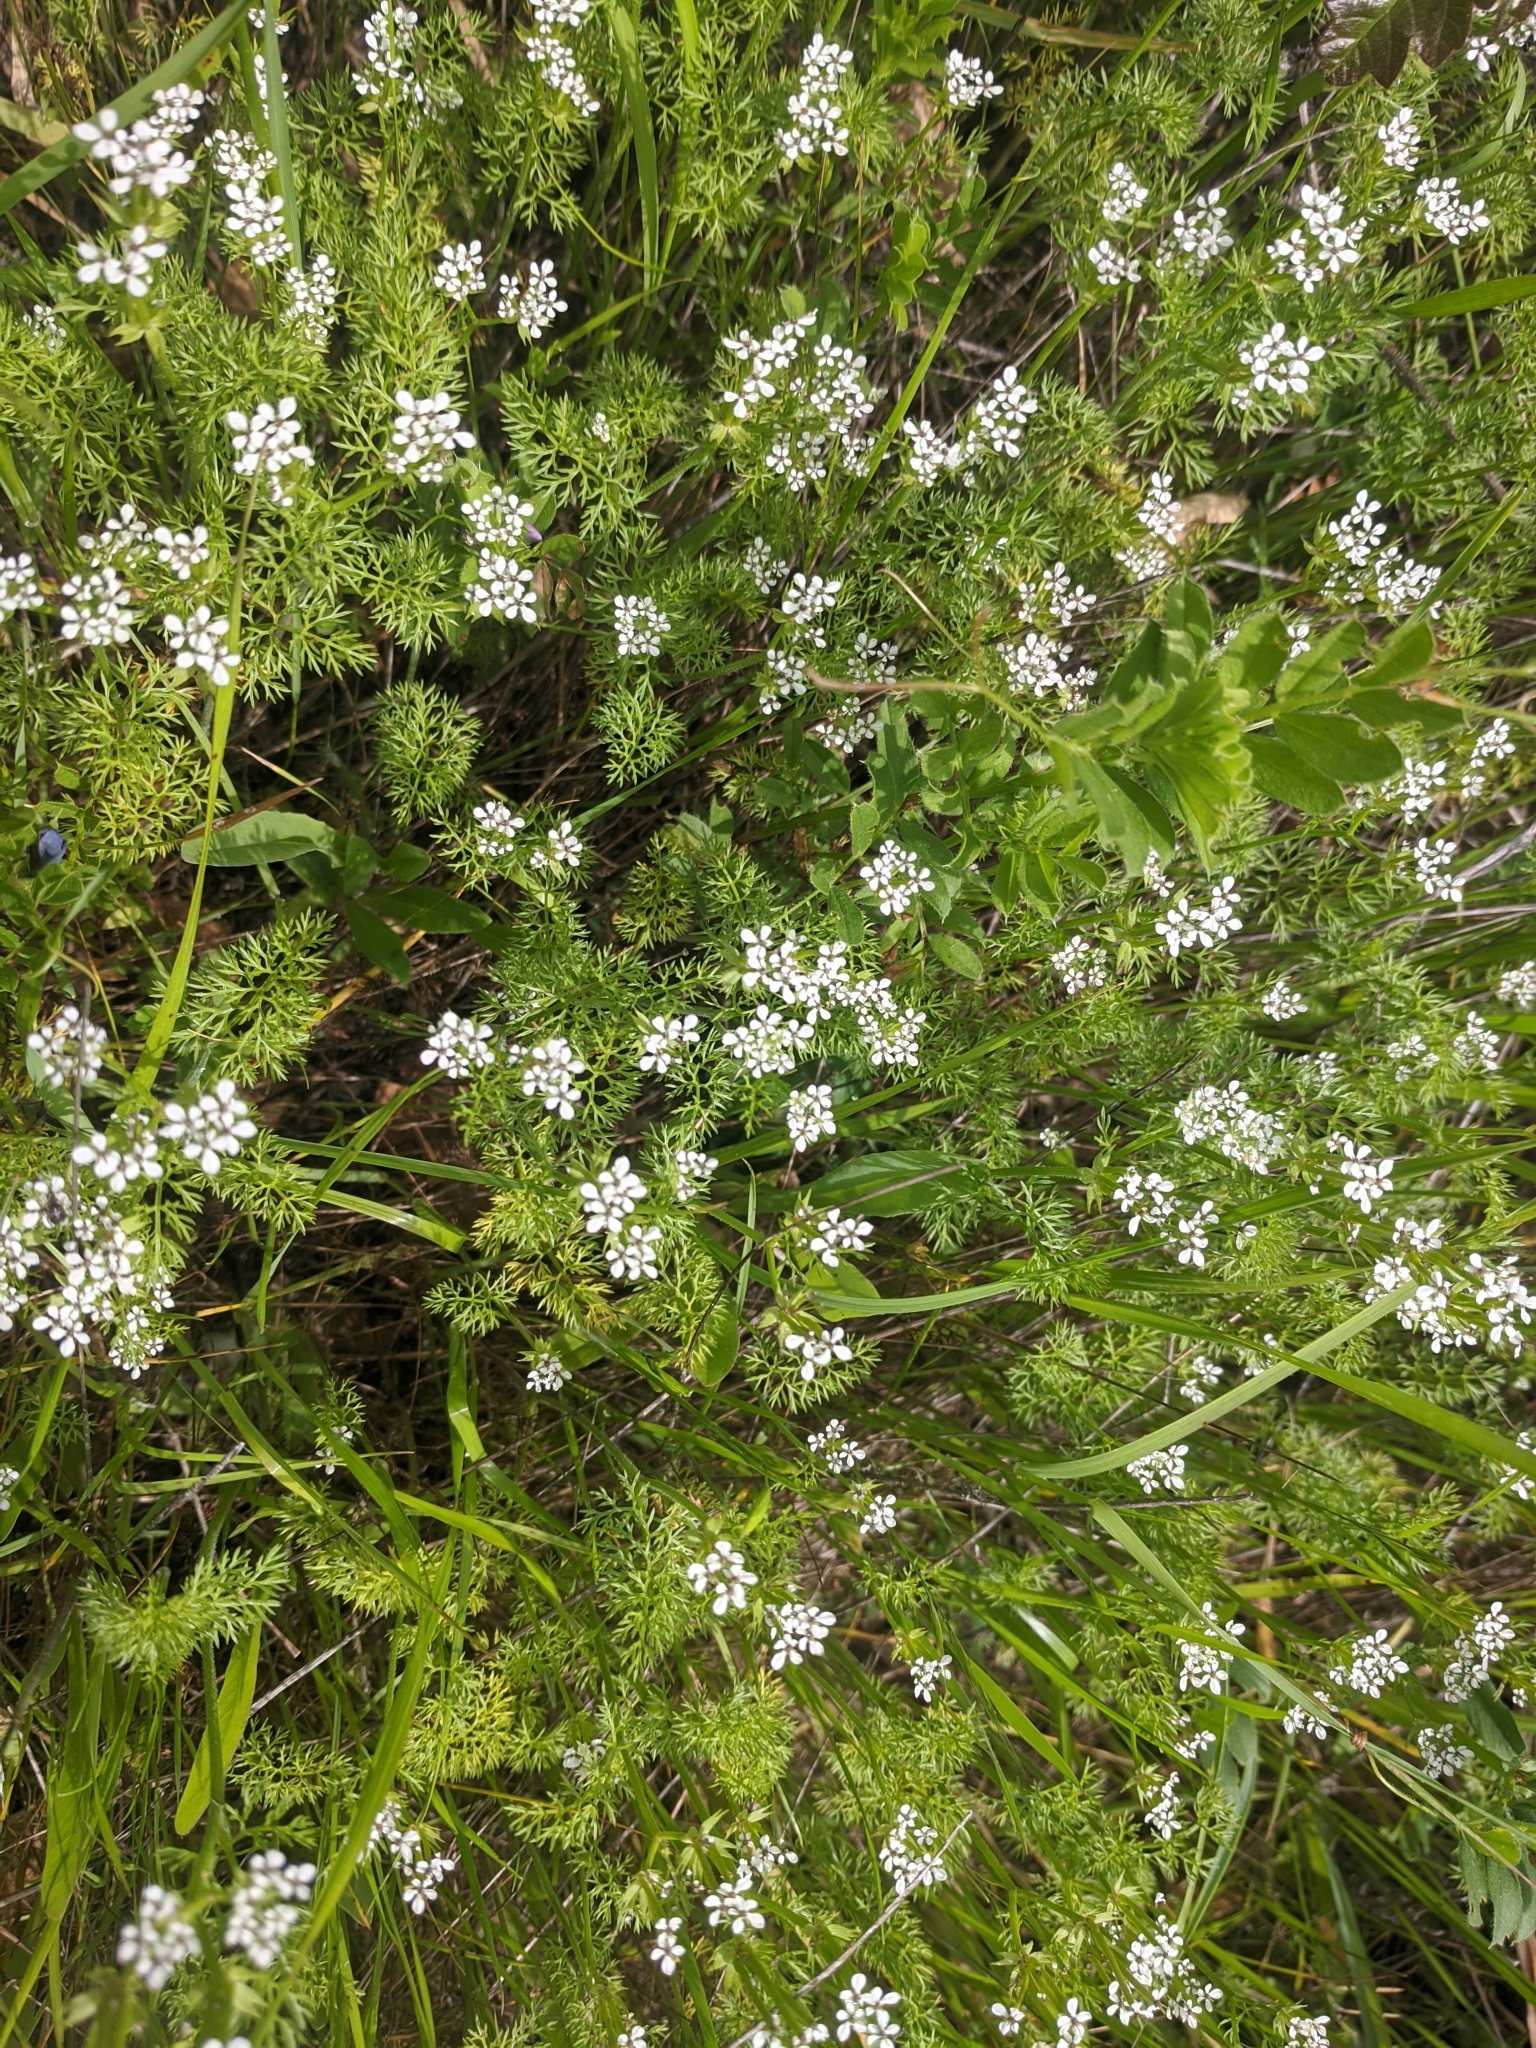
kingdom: Plantae
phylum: Tracheophyta
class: Magnoliopsida
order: Apiales
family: Apiaceae
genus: Scandix
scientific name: Scandix pecten-veneris
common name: Shepherd's-needle
